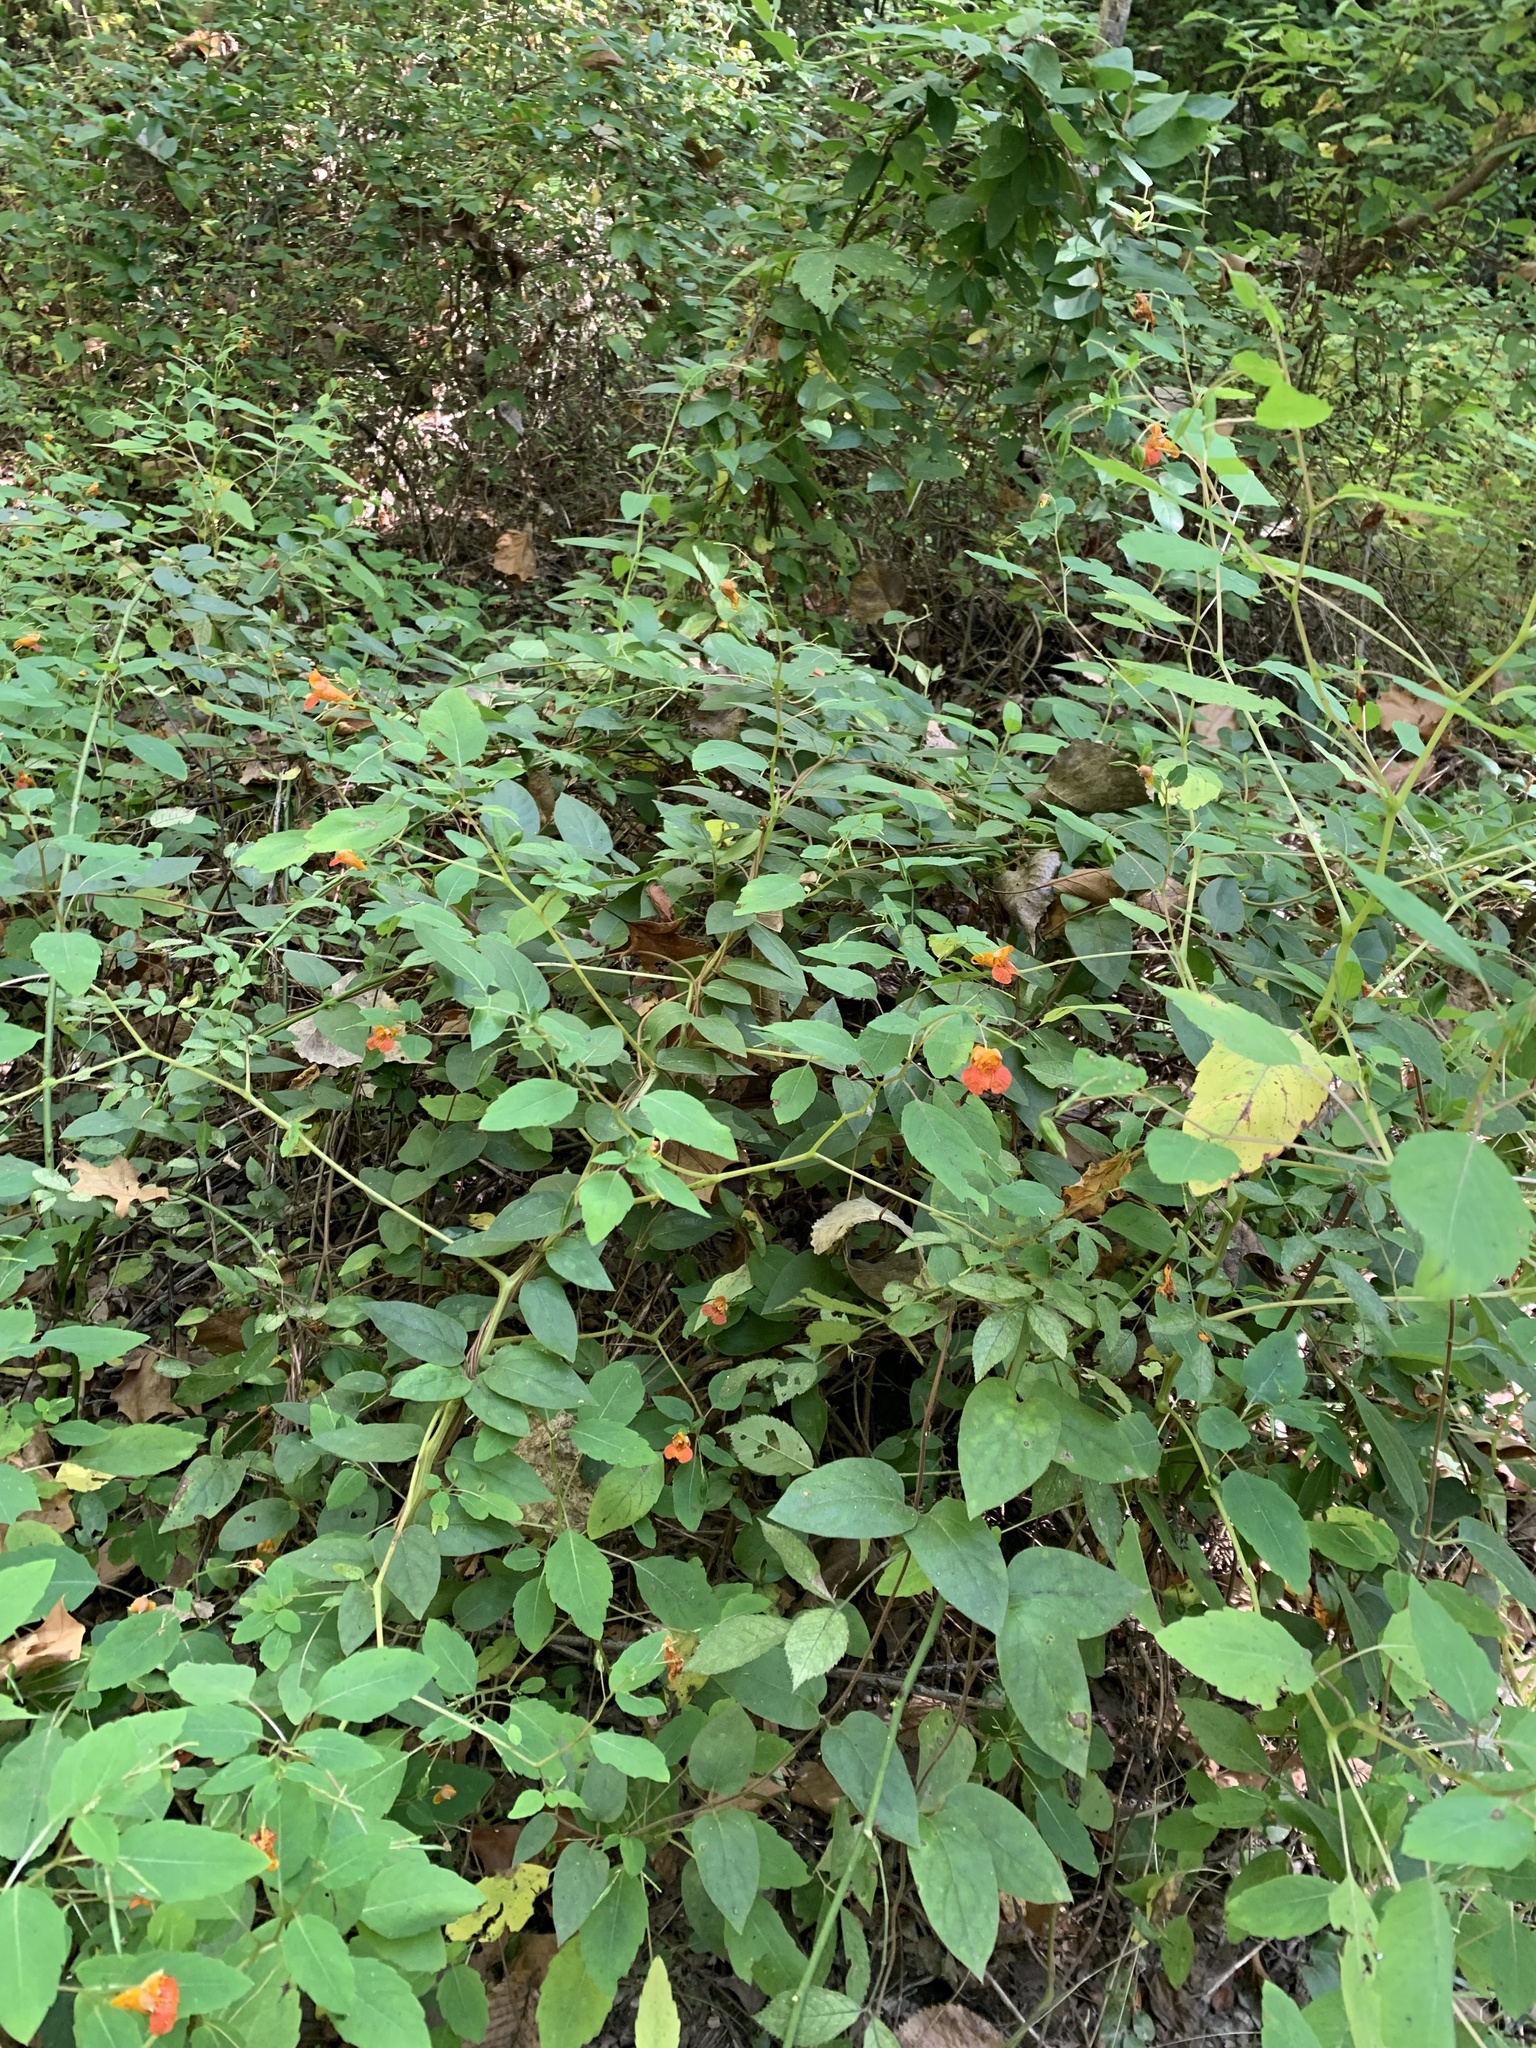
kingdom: Plantae
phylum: Tracheophyta
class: Magnoliopsida
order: Ericales
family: Balsaminaceae
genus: Impatiens
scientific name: Impatiens capensis
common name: Orange balsam
